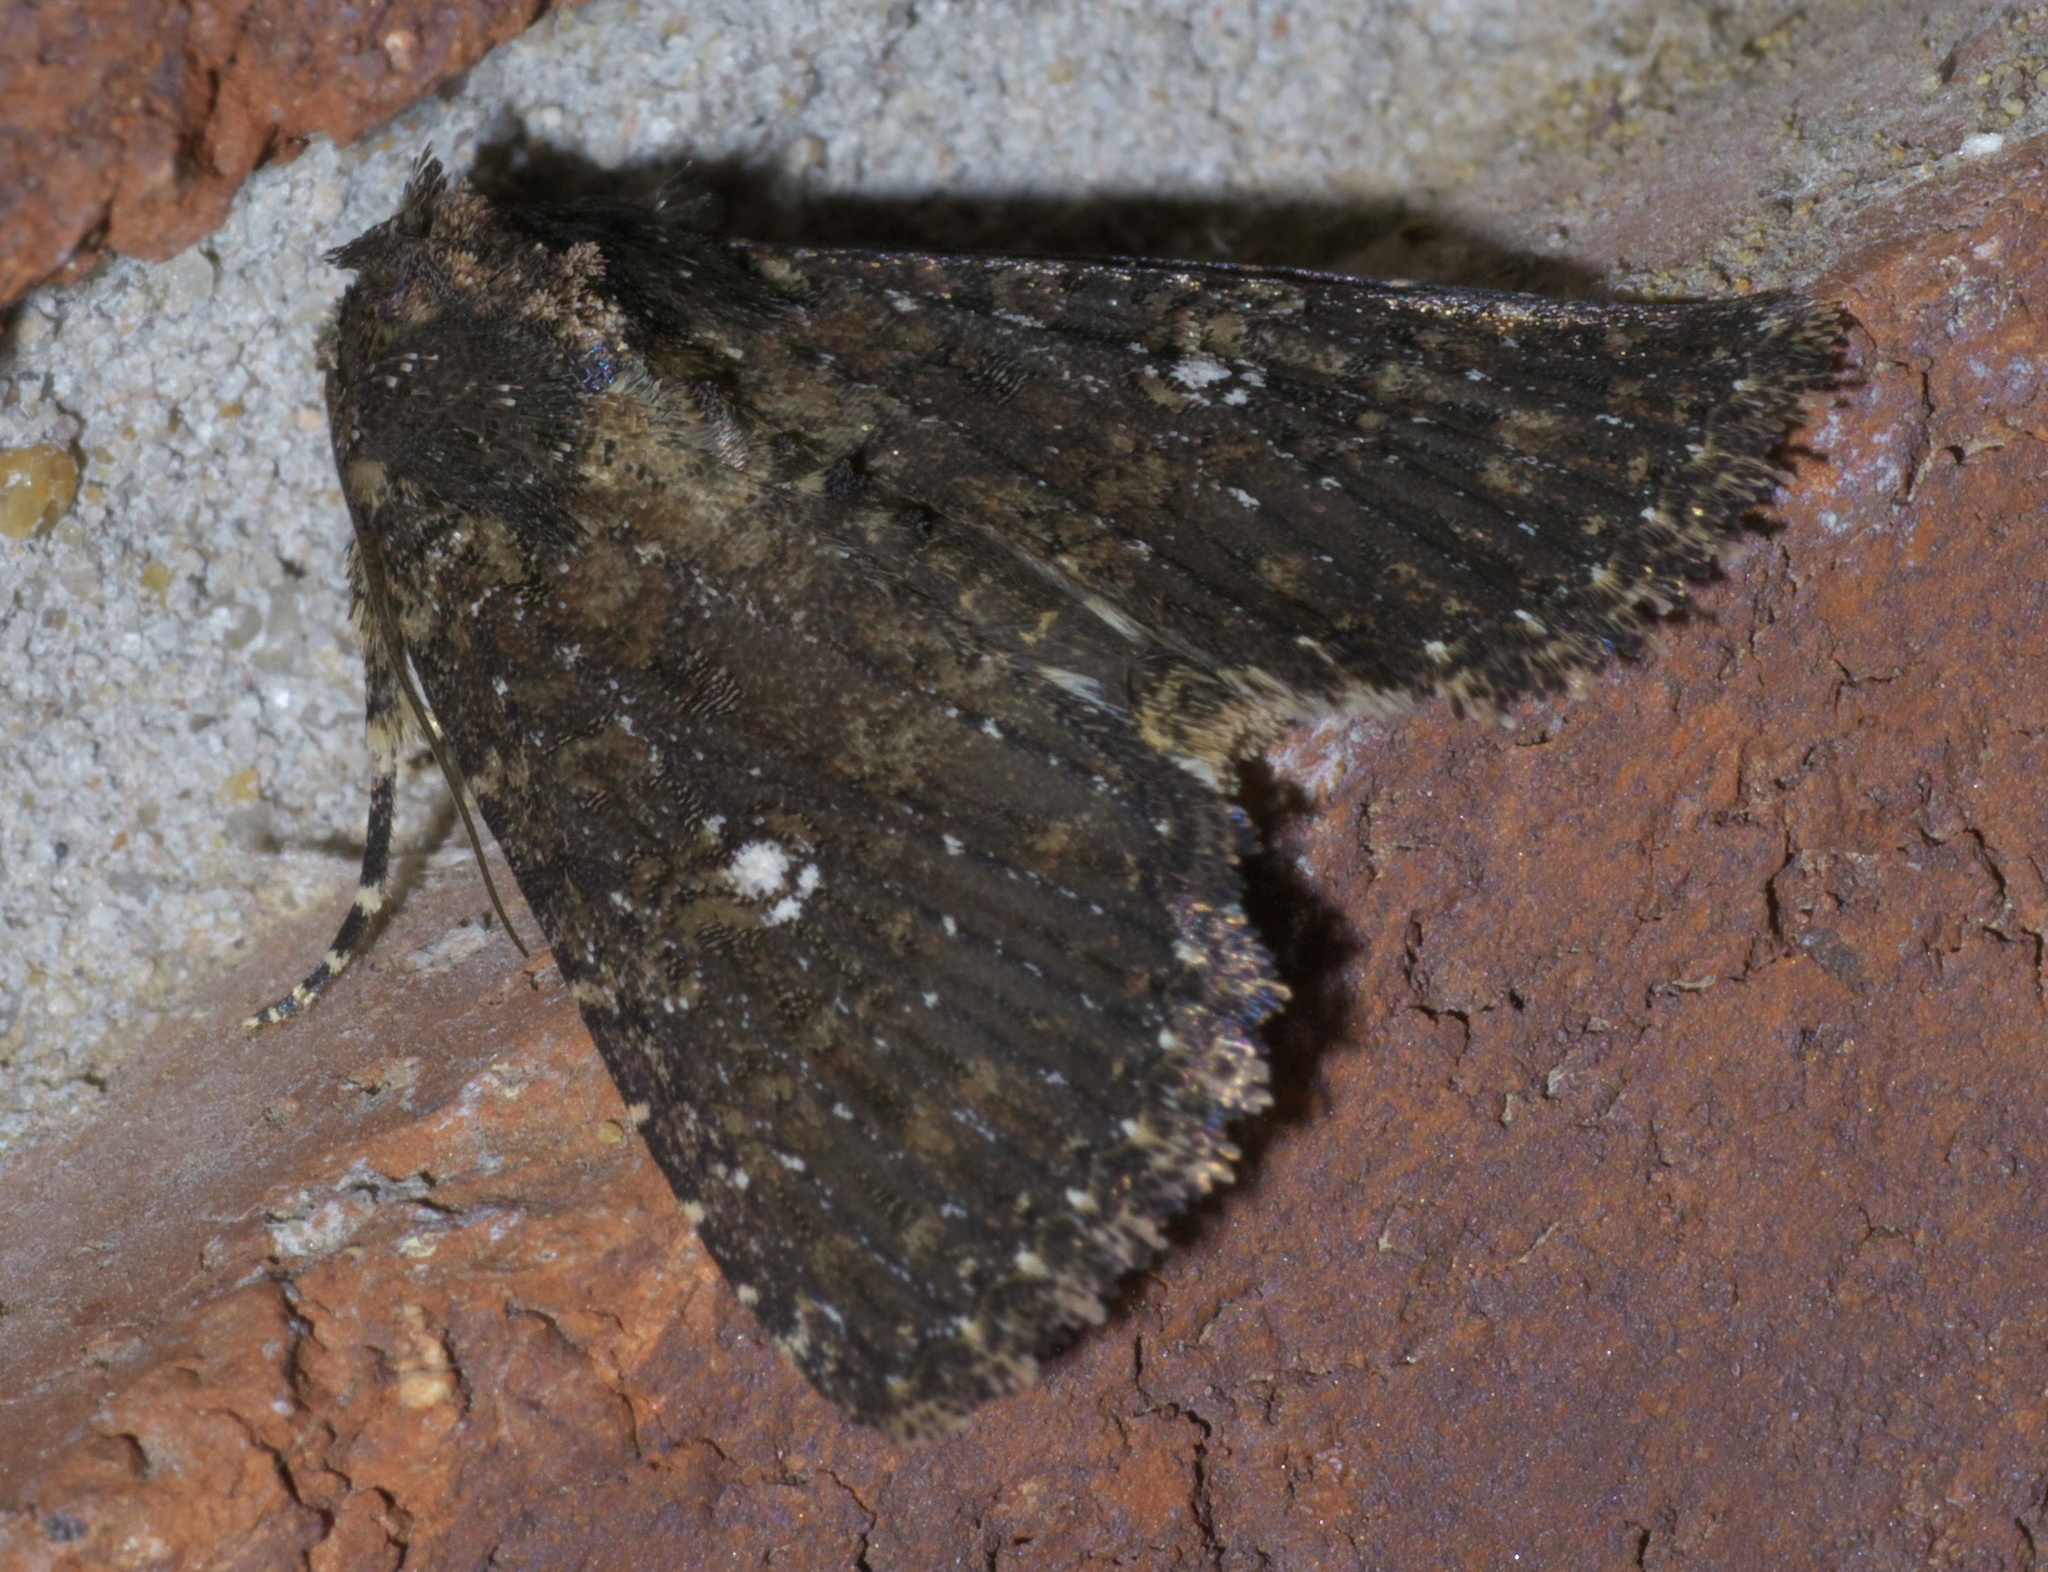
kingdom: Animalia
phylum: Arthropoda
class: Insecta
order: Lepidoptera
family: Noctuidae
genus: Condica
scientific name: Condica vecors
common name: Dusky groundling
